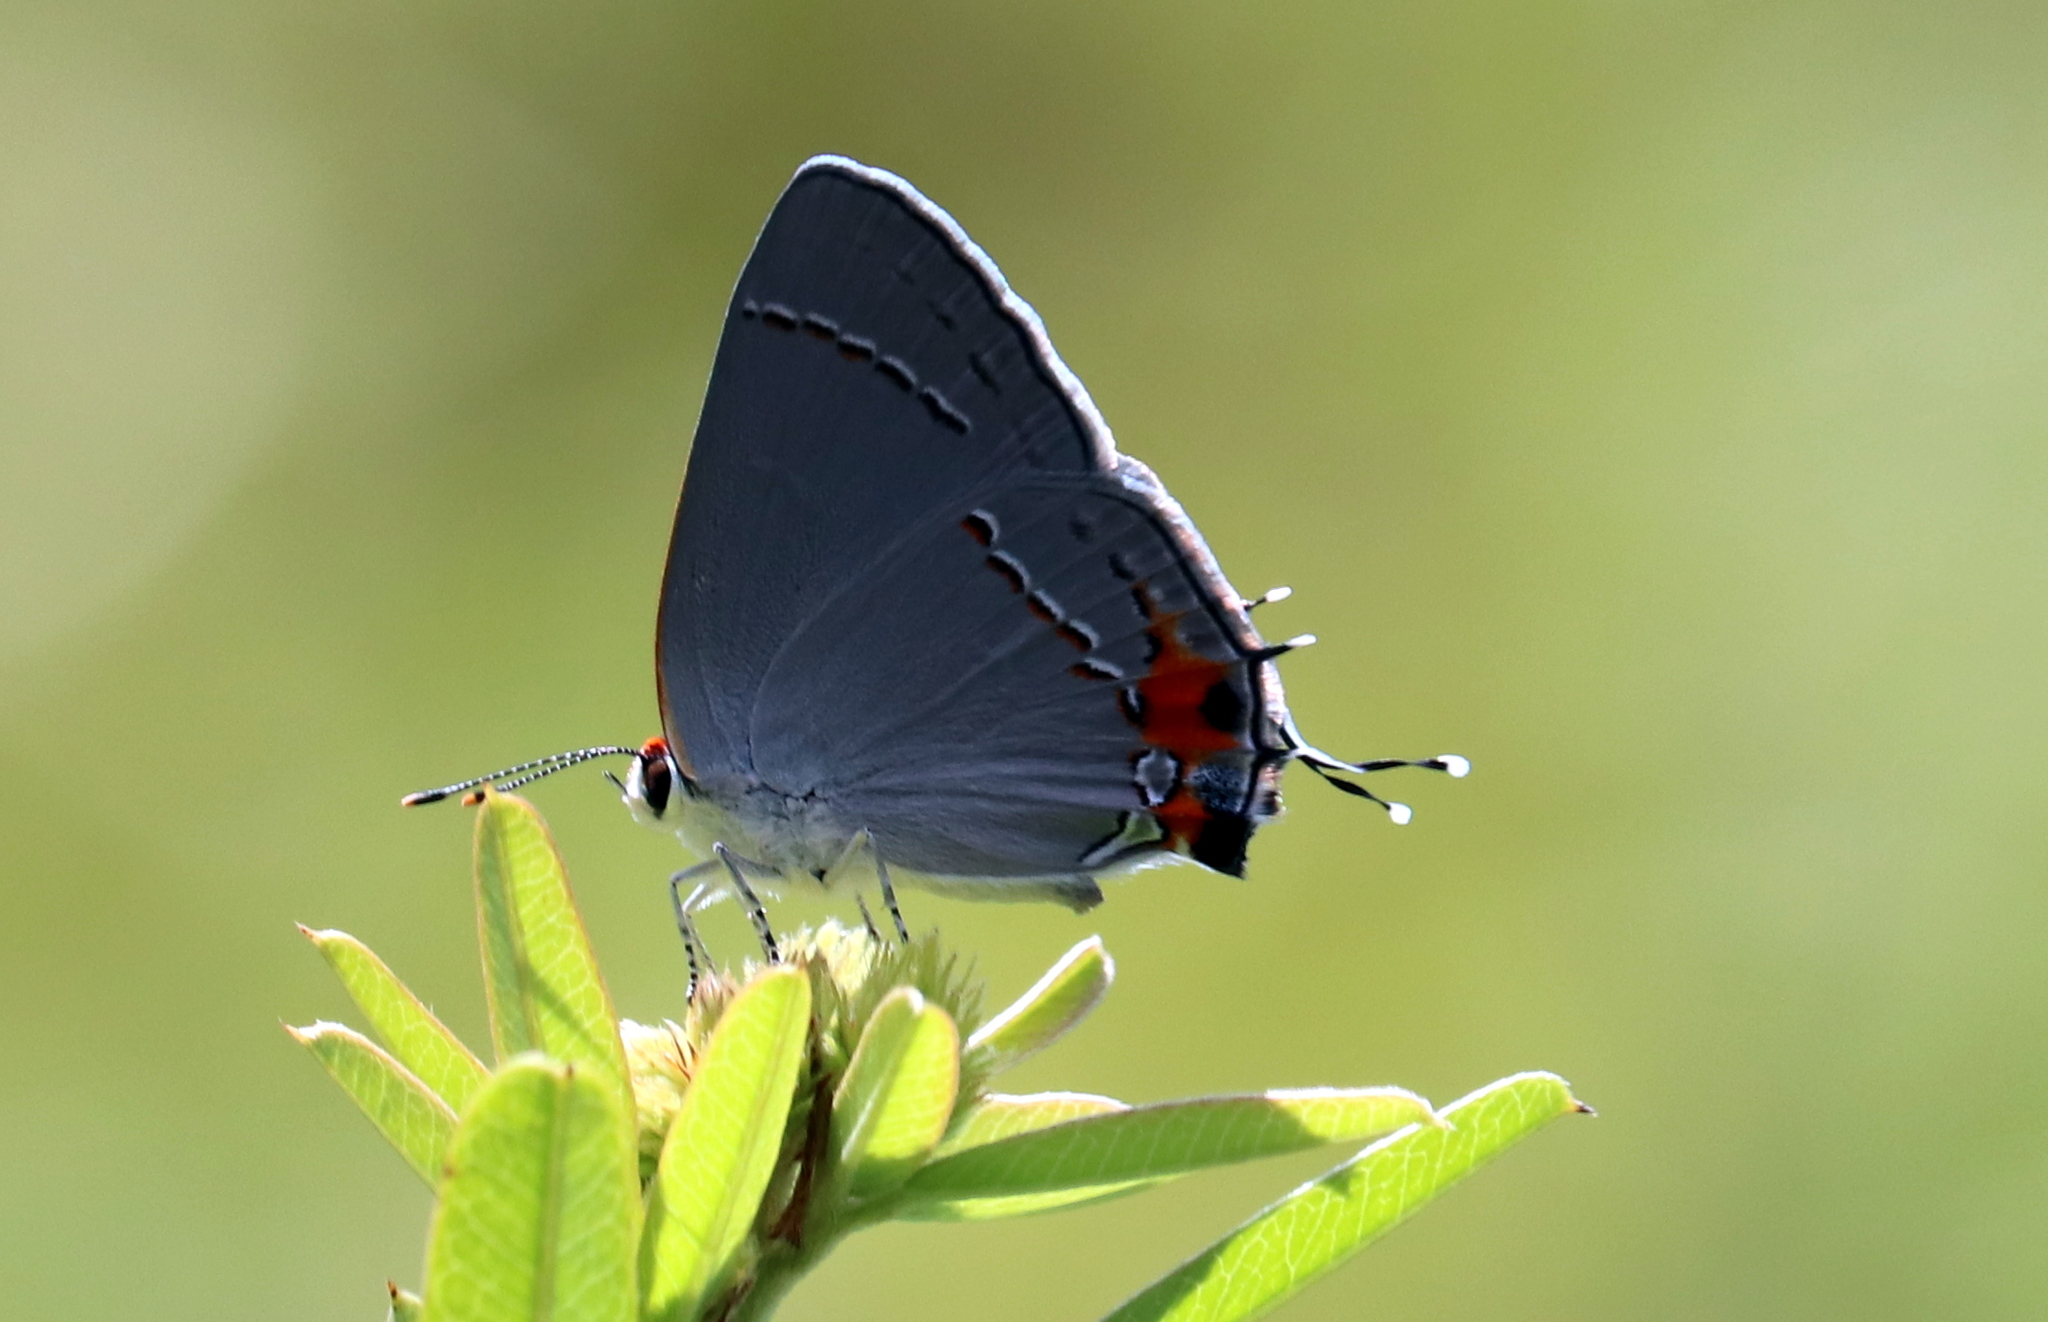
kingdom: Animalia
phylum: Arthropoda
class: Insecta
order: Lepidoptera
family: Lycaenidae
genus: Strymon
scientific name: Strymon melinus
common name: Gray hairstreak
